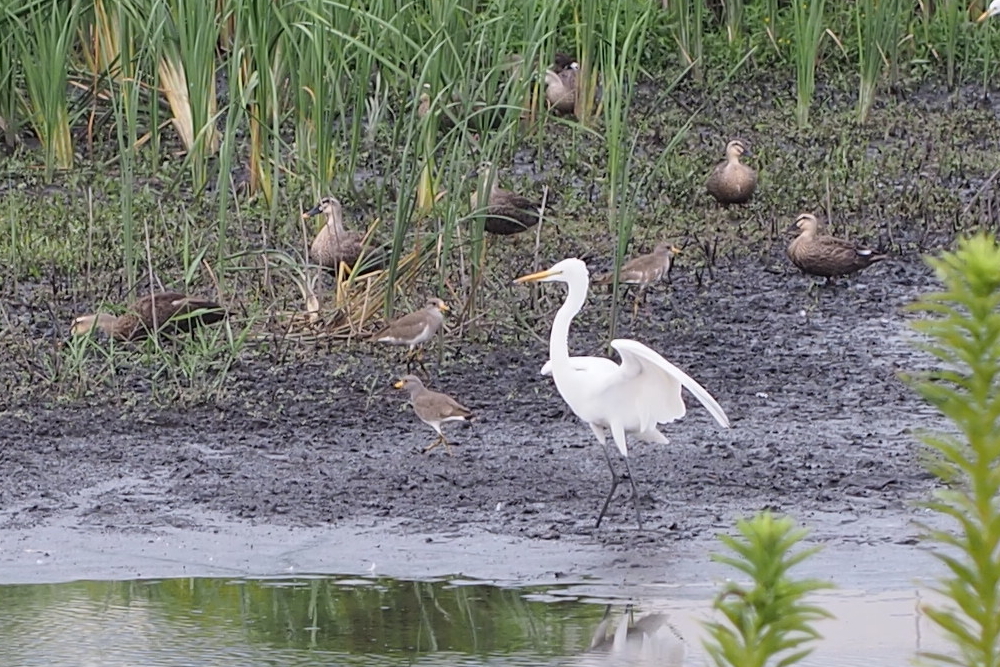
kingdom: Animalia
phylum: Chordata
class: Aves
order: Charadriiformes
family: Charadriidae
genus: Vanellus
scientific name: Vanellus cinereus
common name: Grey-headed lapwing
